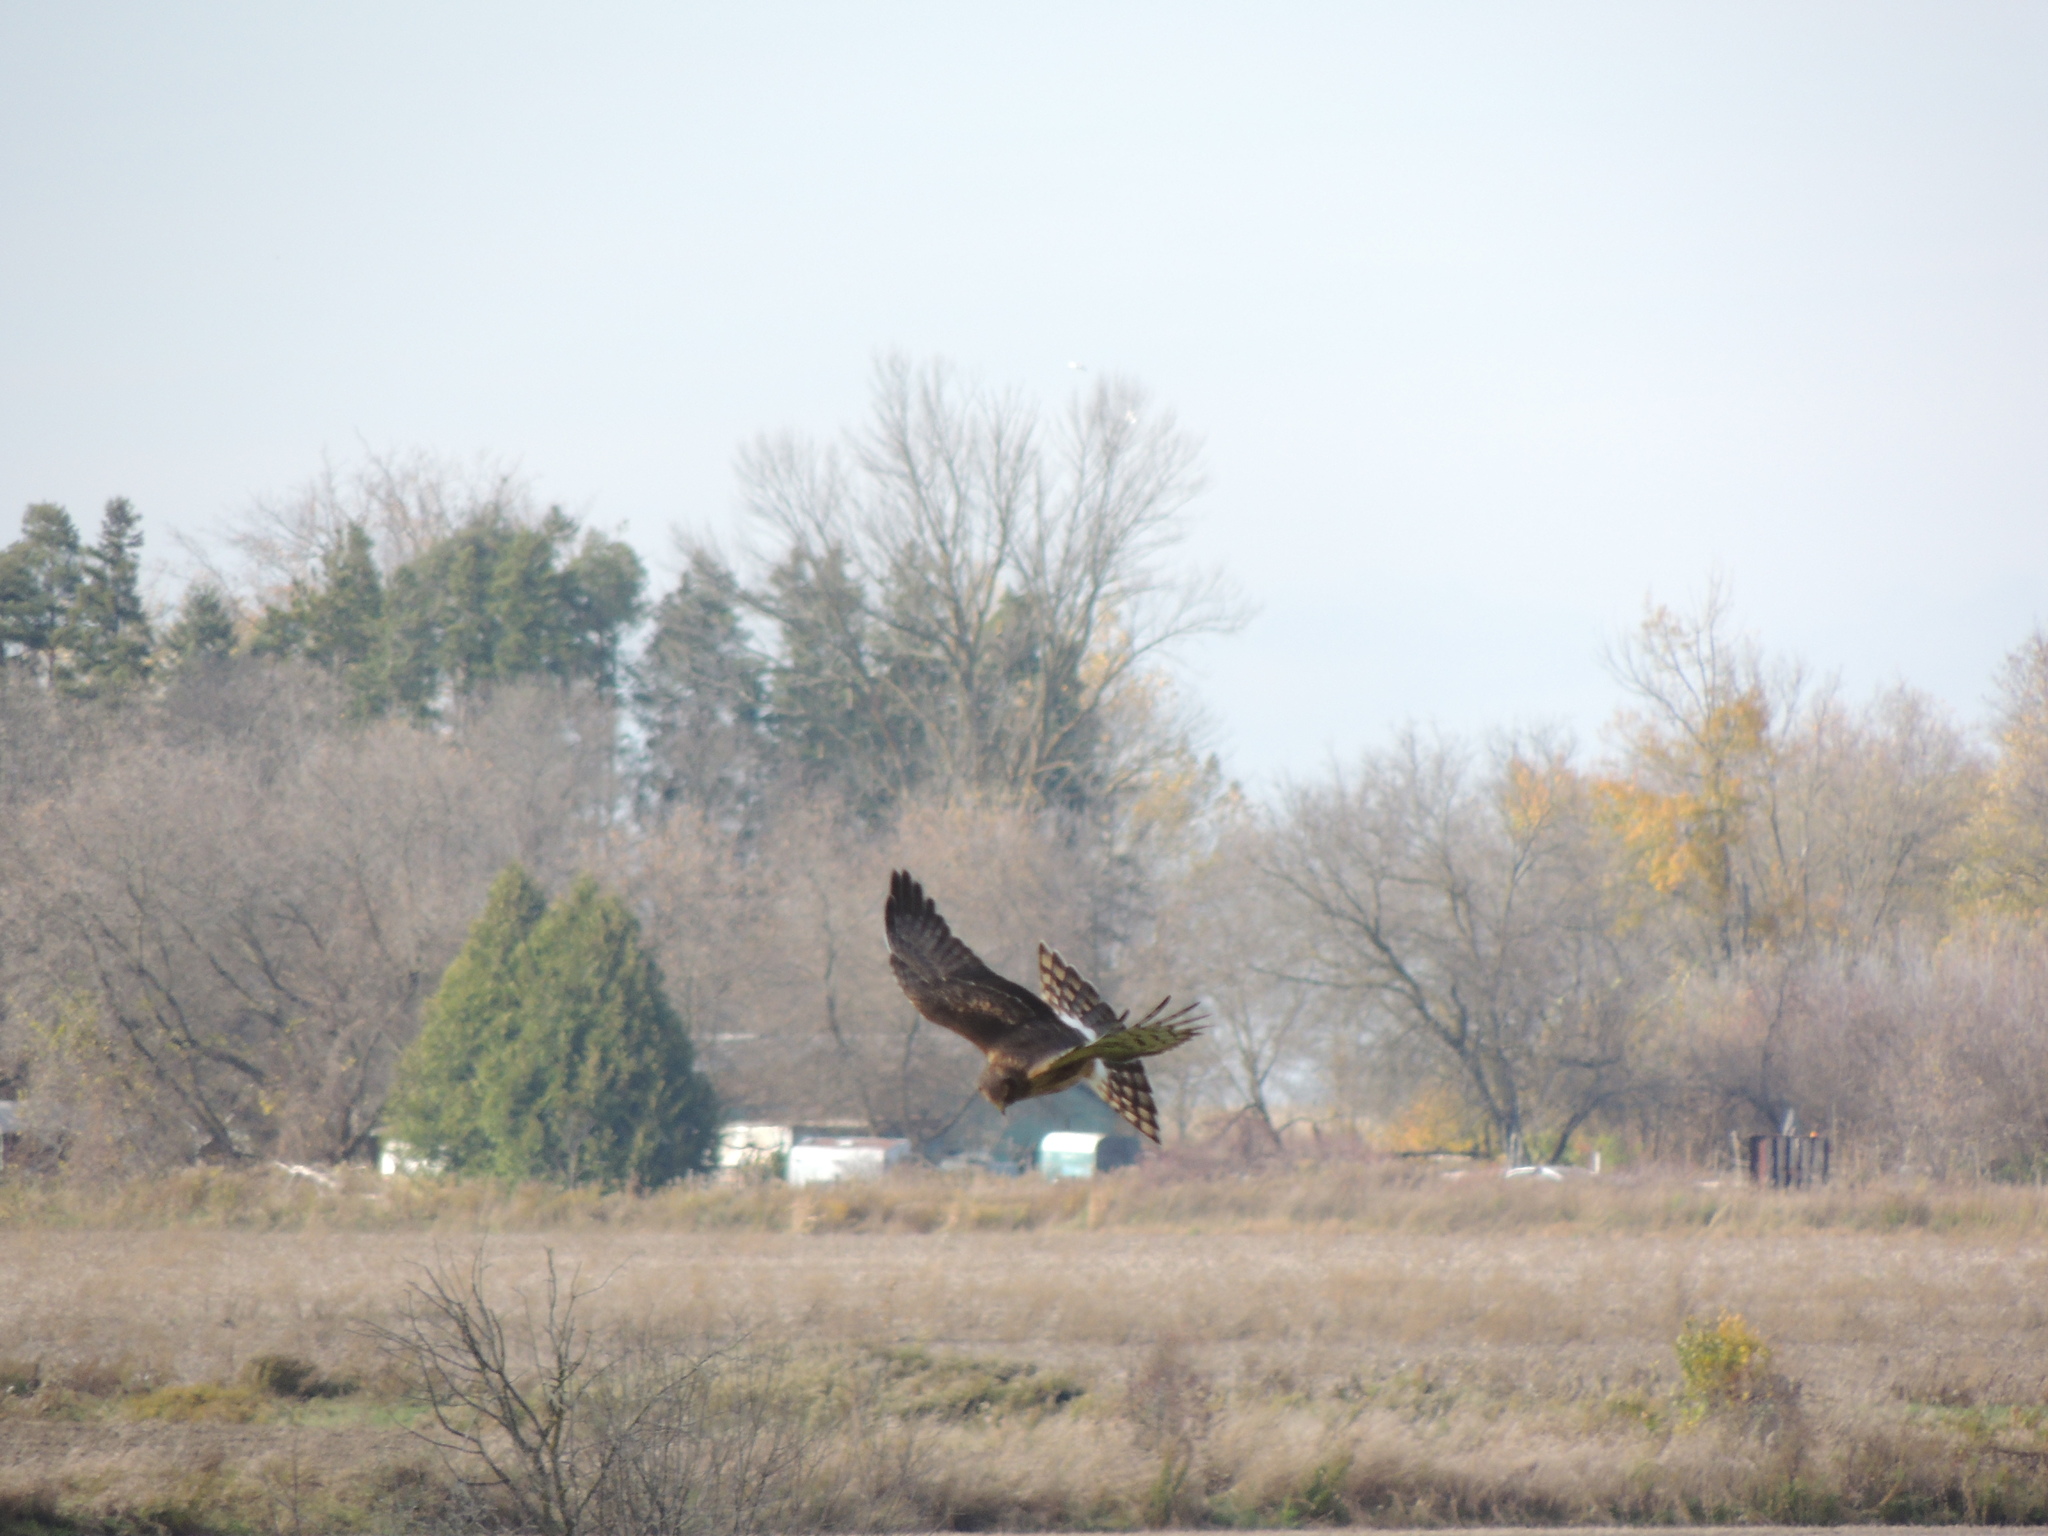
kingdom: Animalia
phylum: Chordata
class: Aves
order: Accipitriformes
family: Accipitridae
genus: Circus
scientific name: Circus cyaneus
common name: Hen harrier
